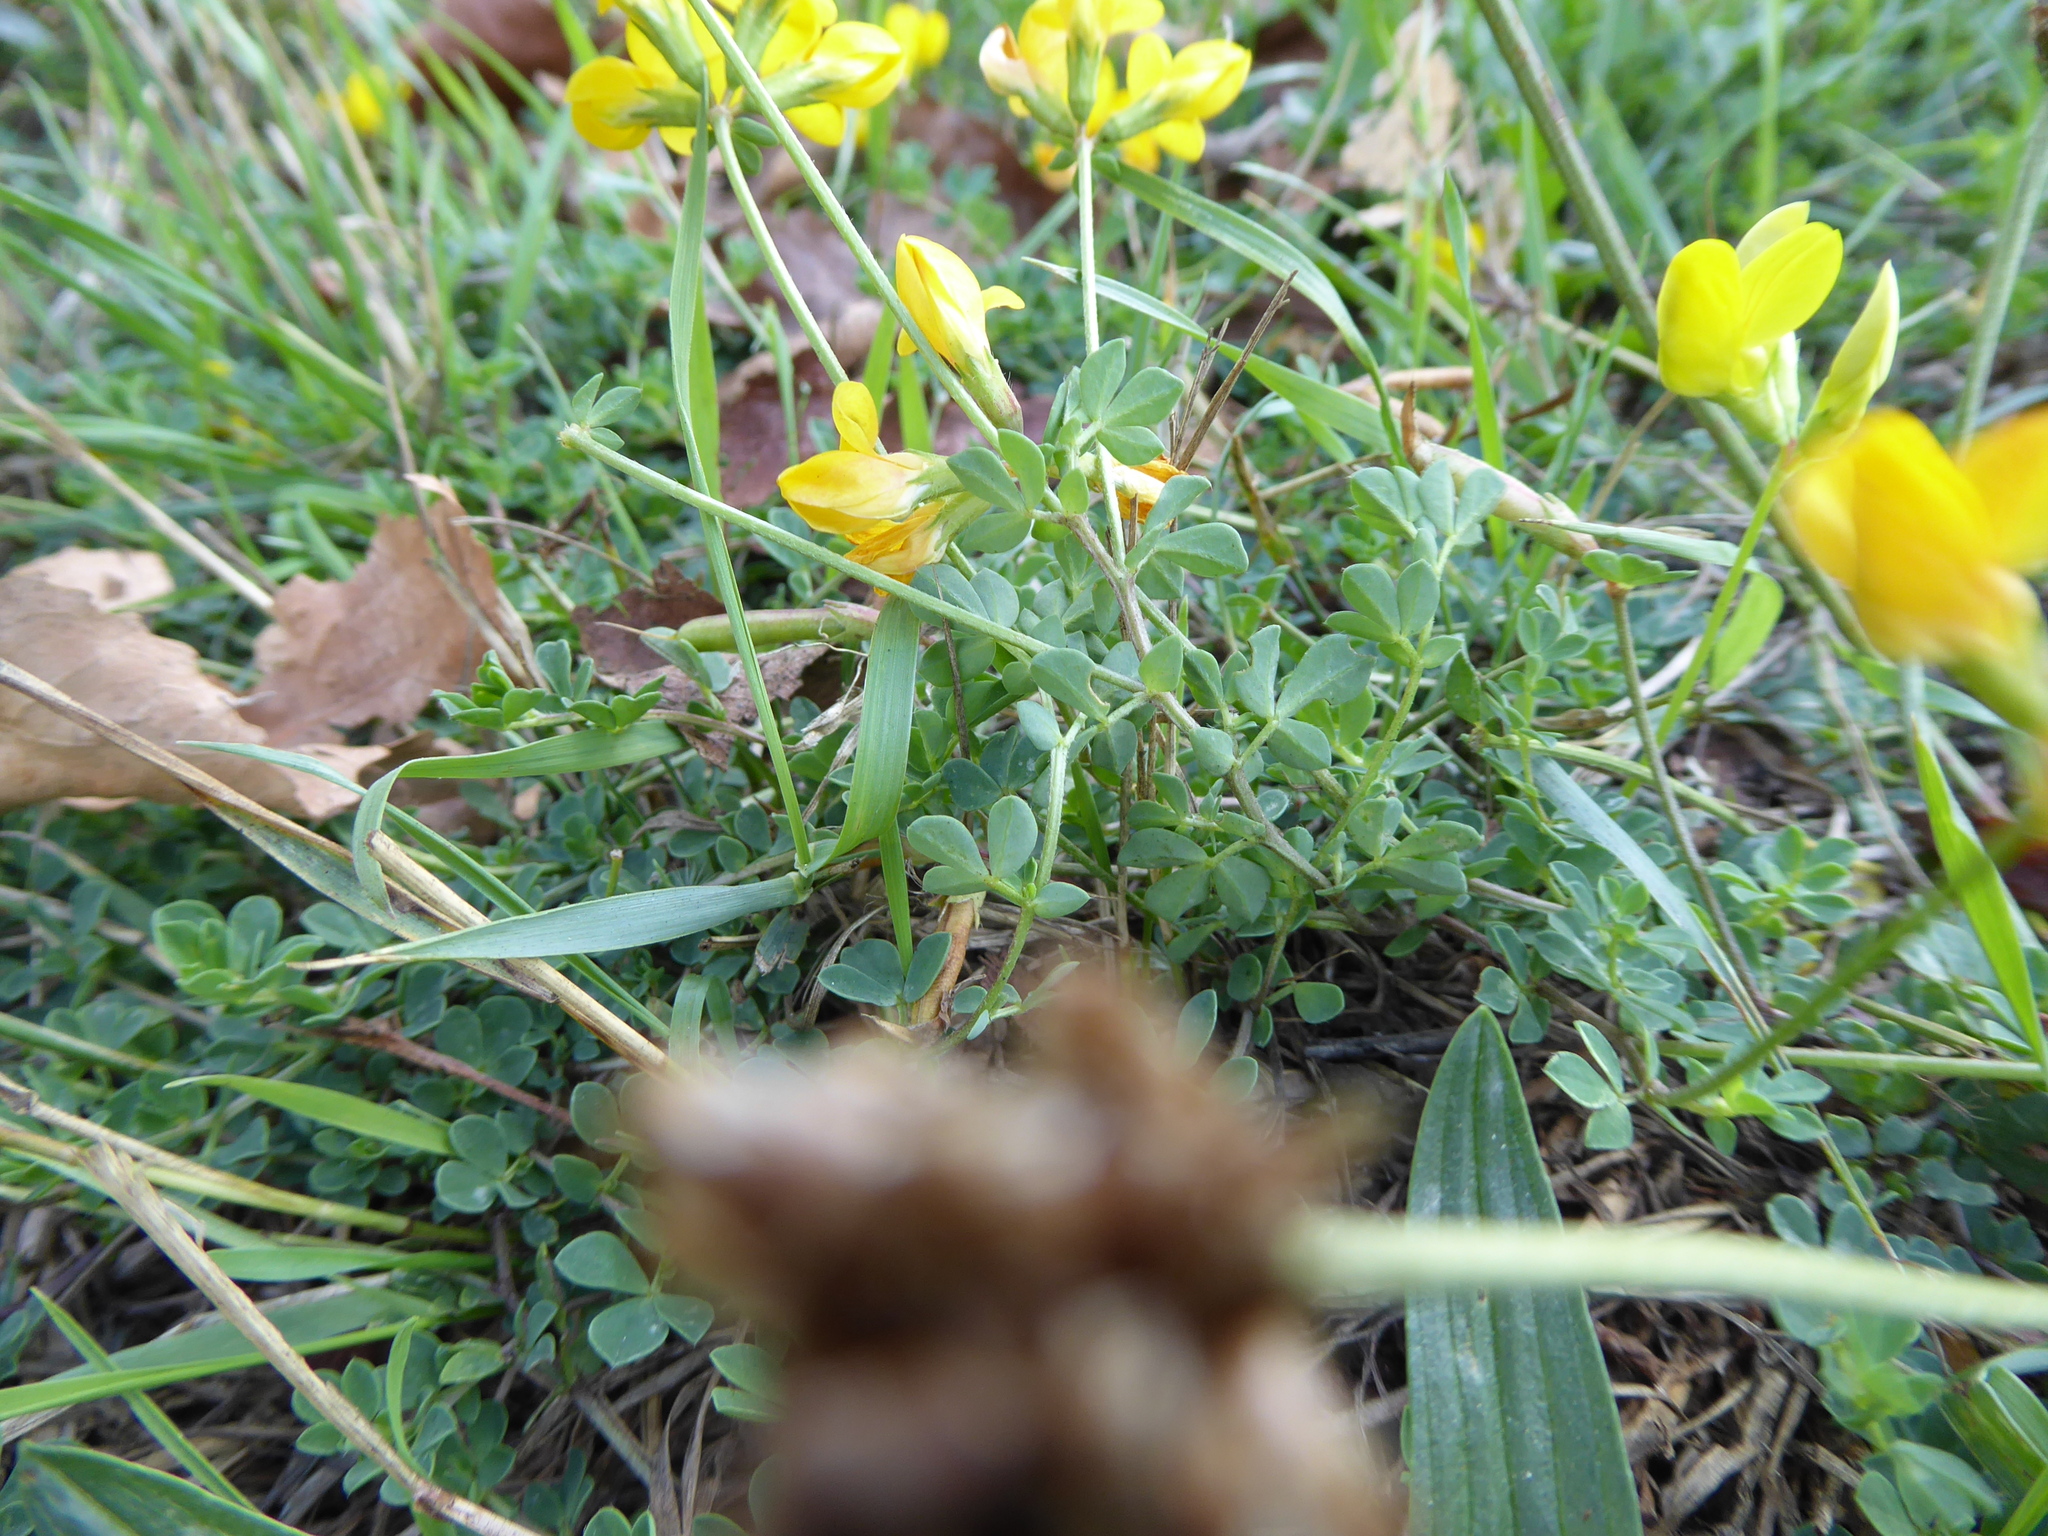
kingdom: Plantae
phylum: Tracheophyta
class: Magnoliopsida
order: Fabales
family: Fabaceae
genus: Lotus
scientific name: Lotus corniculatus
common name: Common bird's-foot-trefoil
